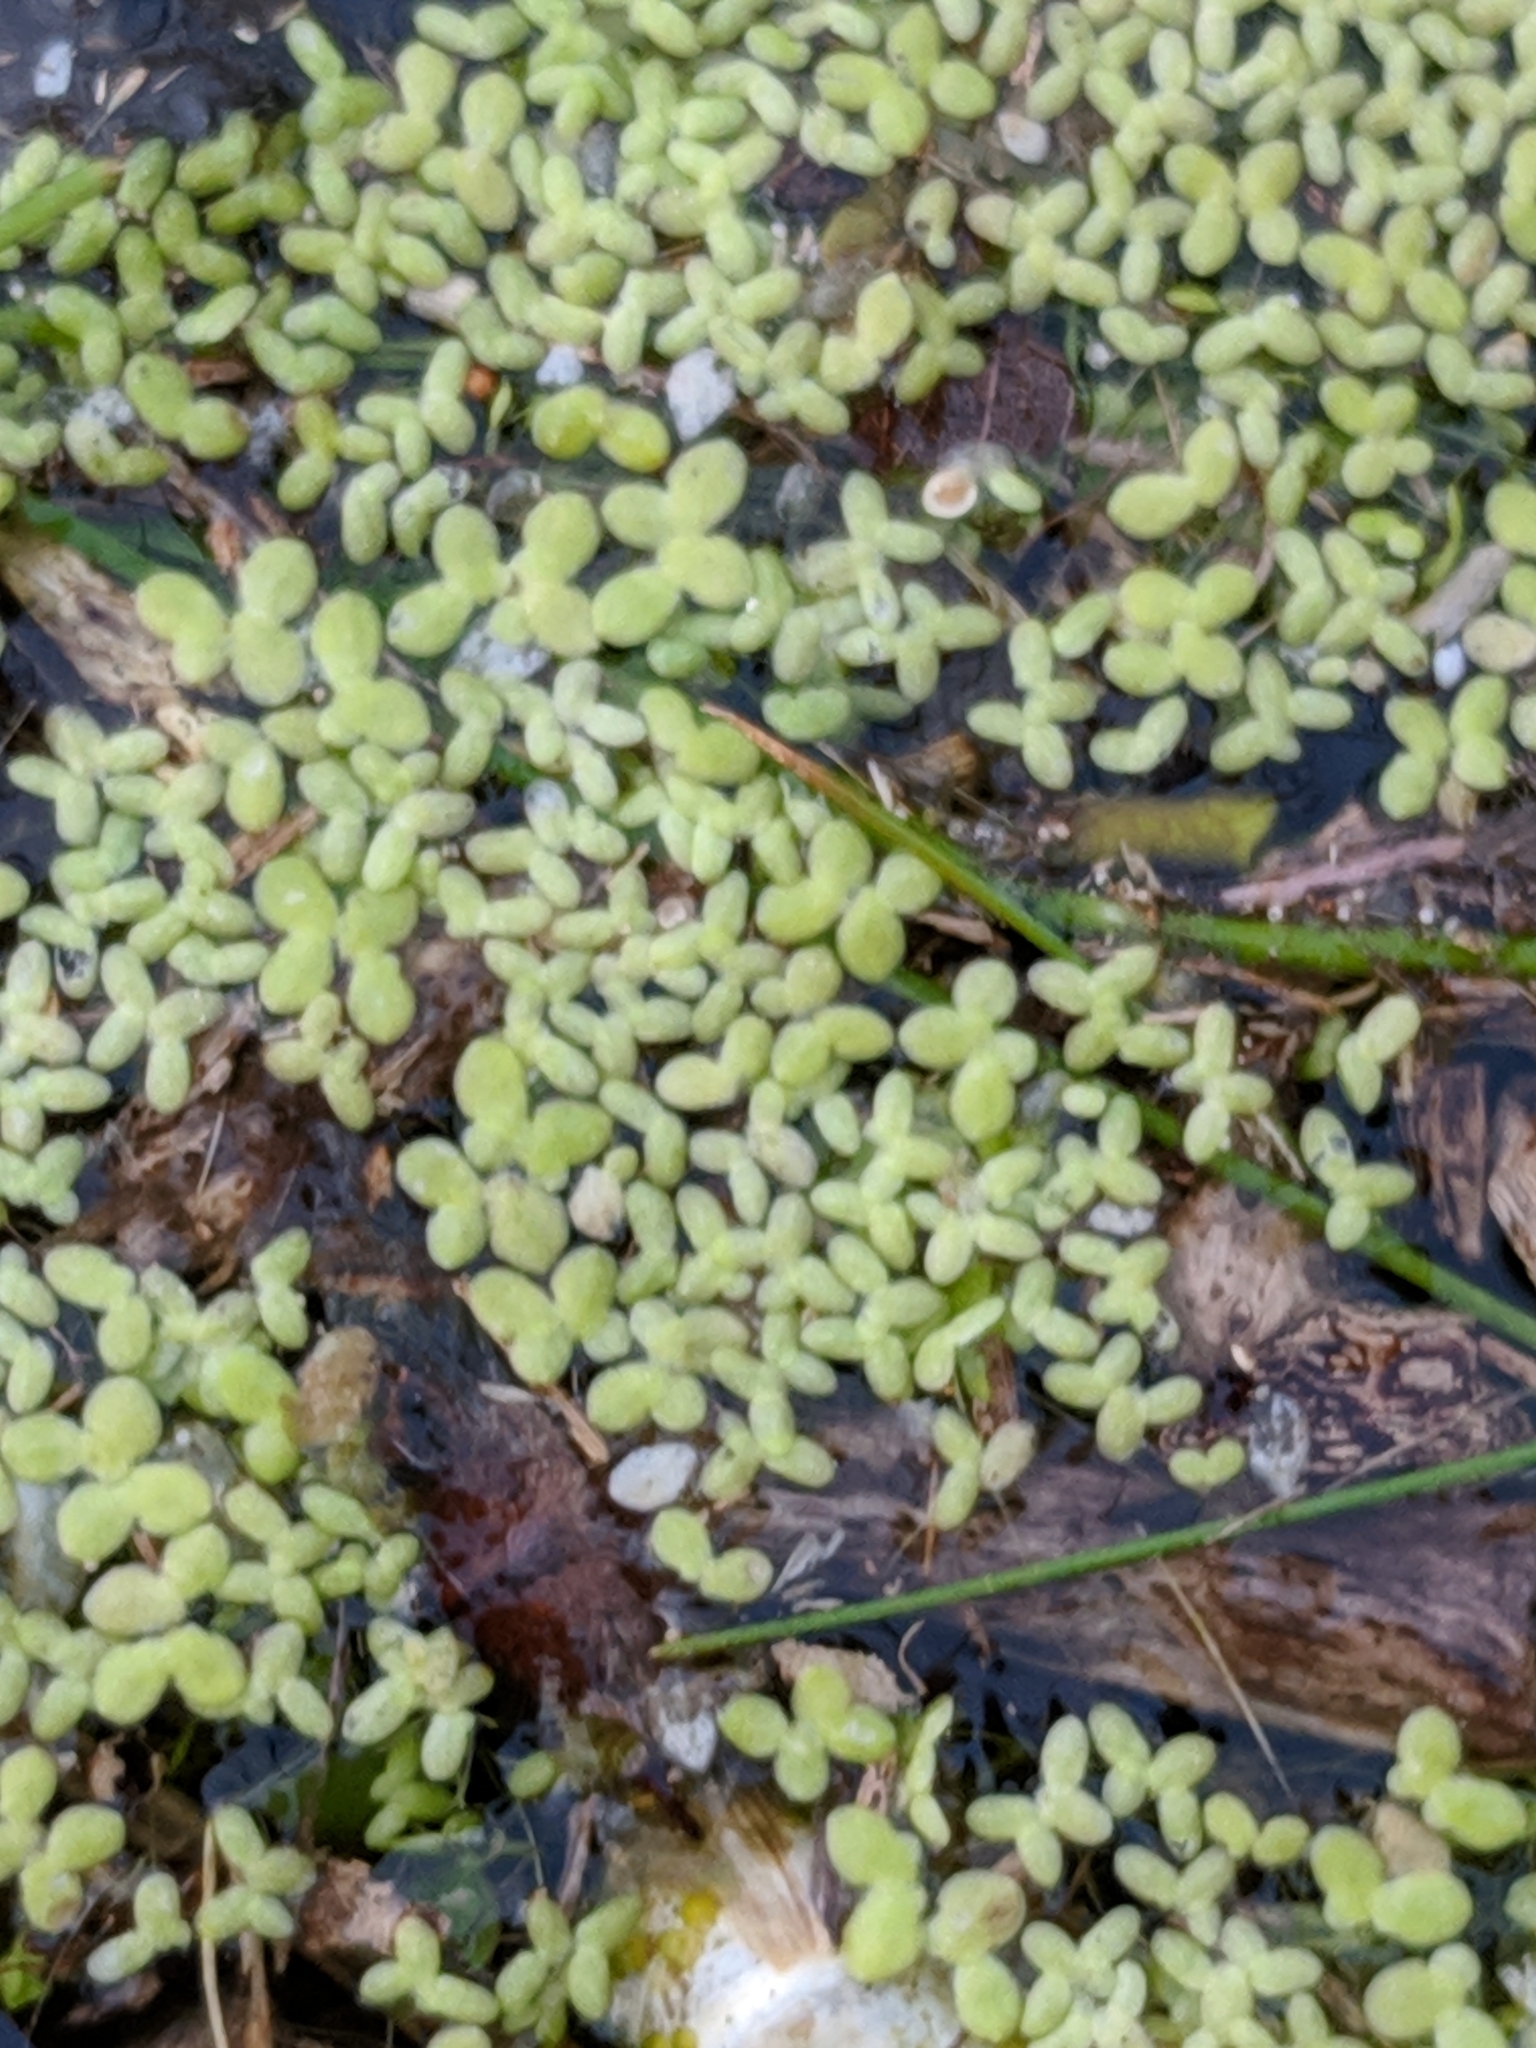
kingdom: Plantae
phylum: Tracheophyta
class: Liliopsida
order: Alismatales
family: Araceae
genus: Lemna
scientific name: Lemna aequinoctialis
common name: Duckweed
